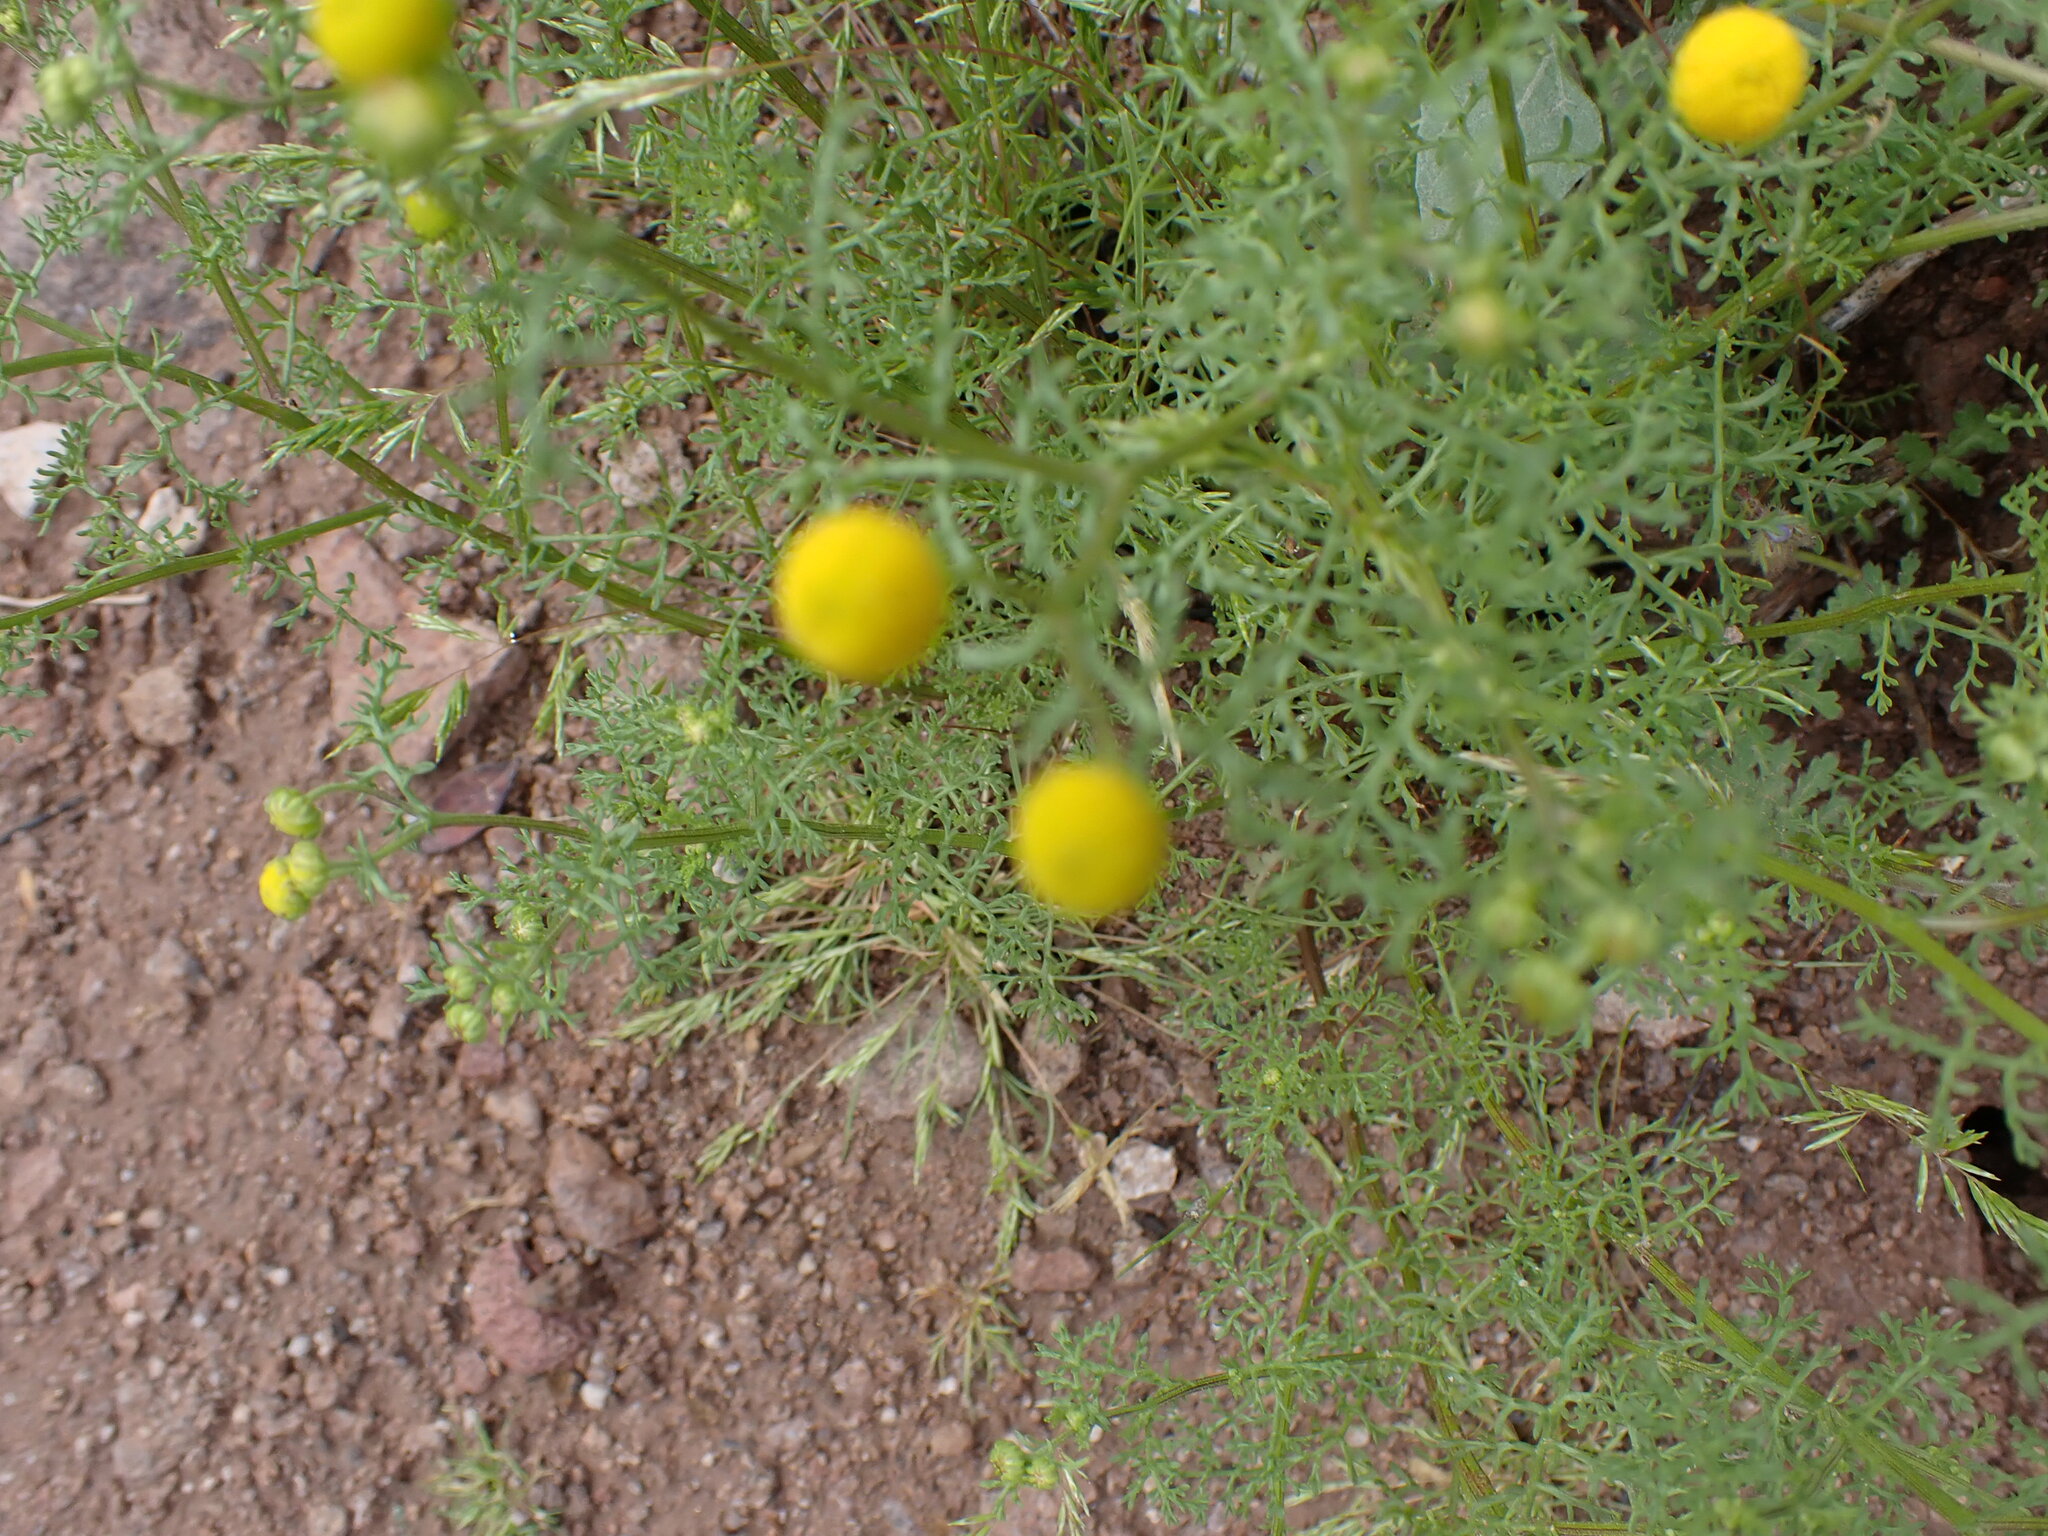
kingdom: Plantae
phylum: Tracheophyta
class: Magnoliopsida
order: Asterales
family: Asteraceae
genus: Oncosiphon
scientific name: Oncosiphon pilulifer
